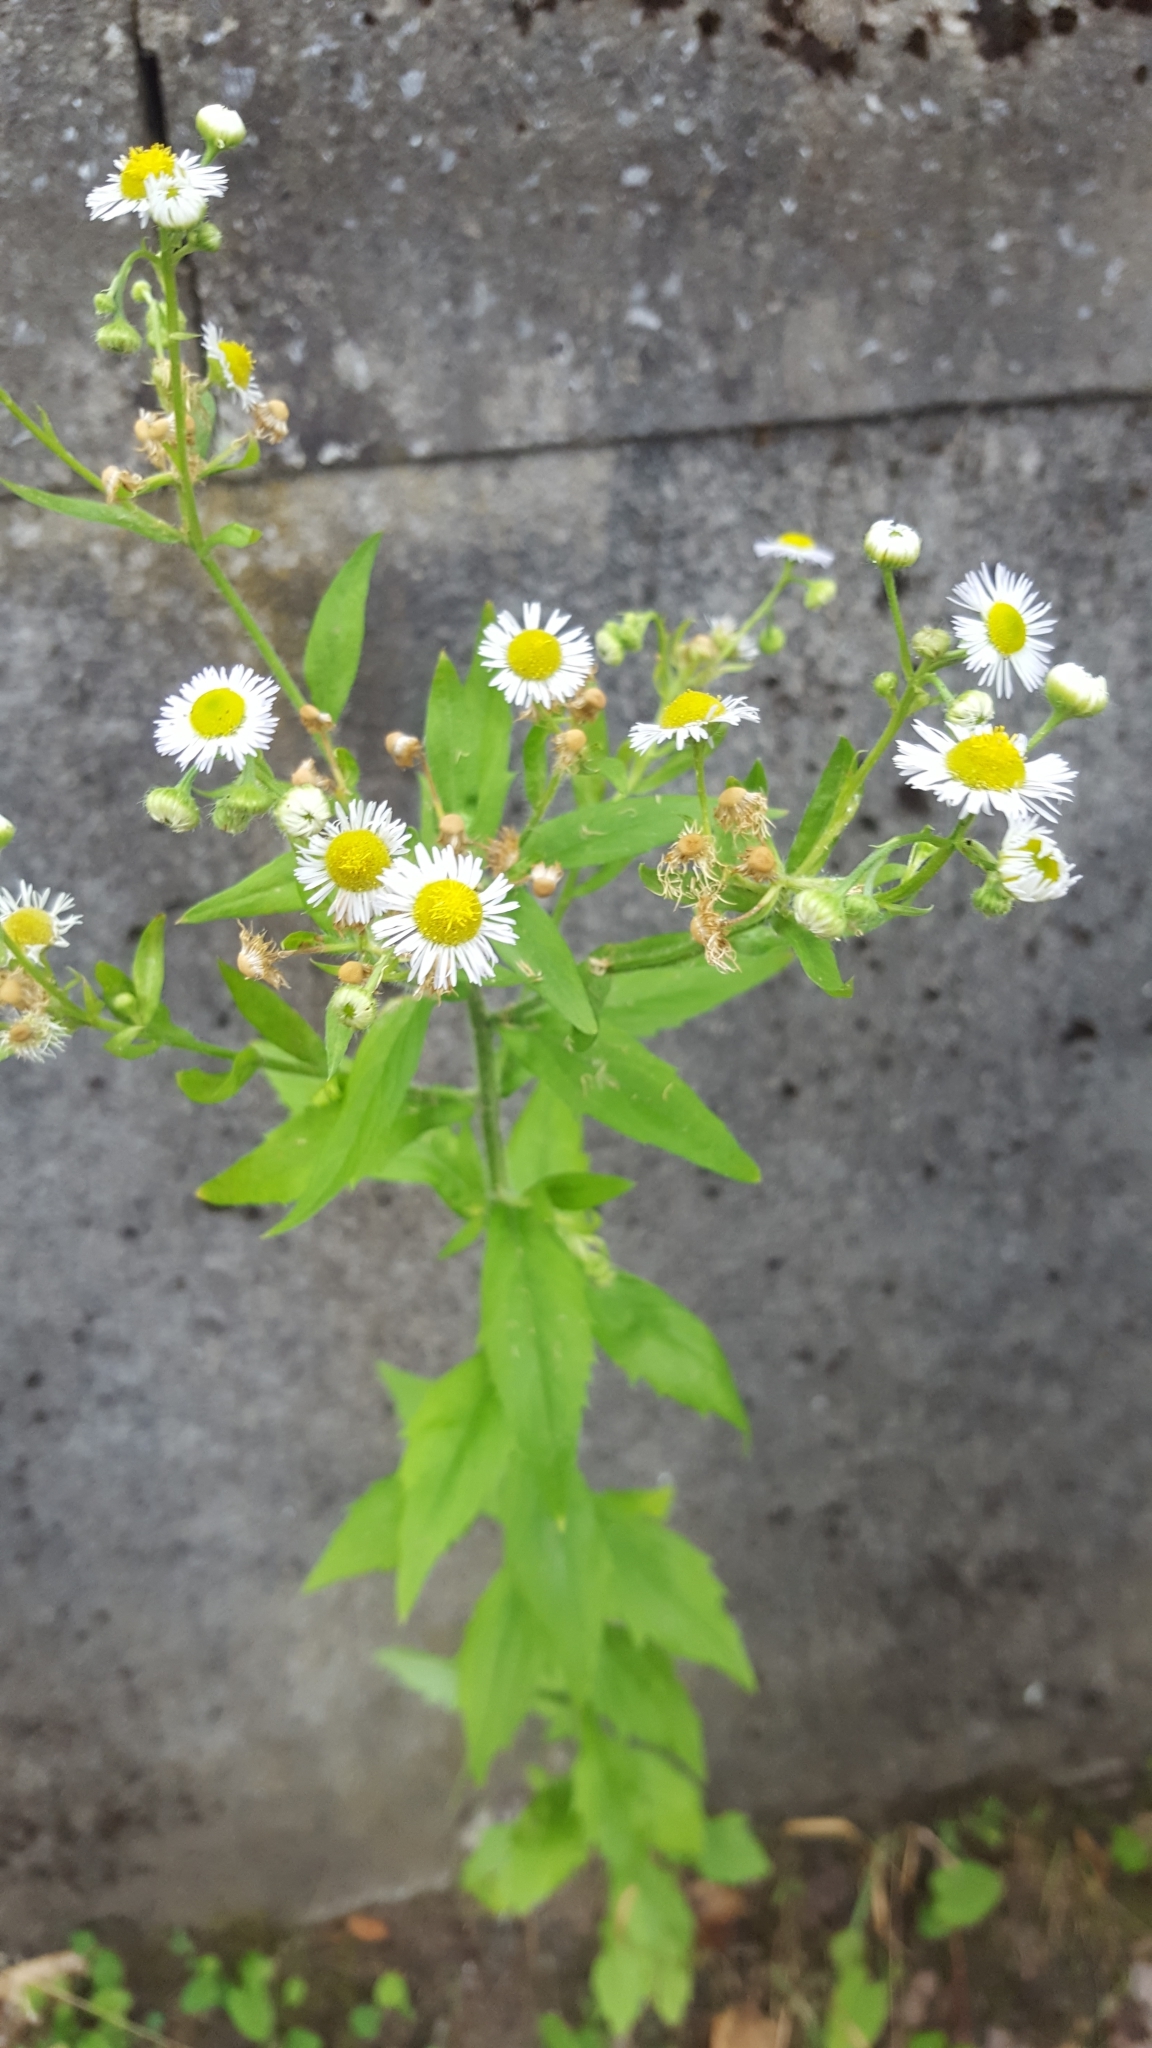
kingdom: Plantae
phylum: Tracheophyta
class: Magnoliopsida
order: Asterales
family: Asteraceae
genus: Erigeron
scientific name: Erigeron annuus
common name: Tall fleabane
